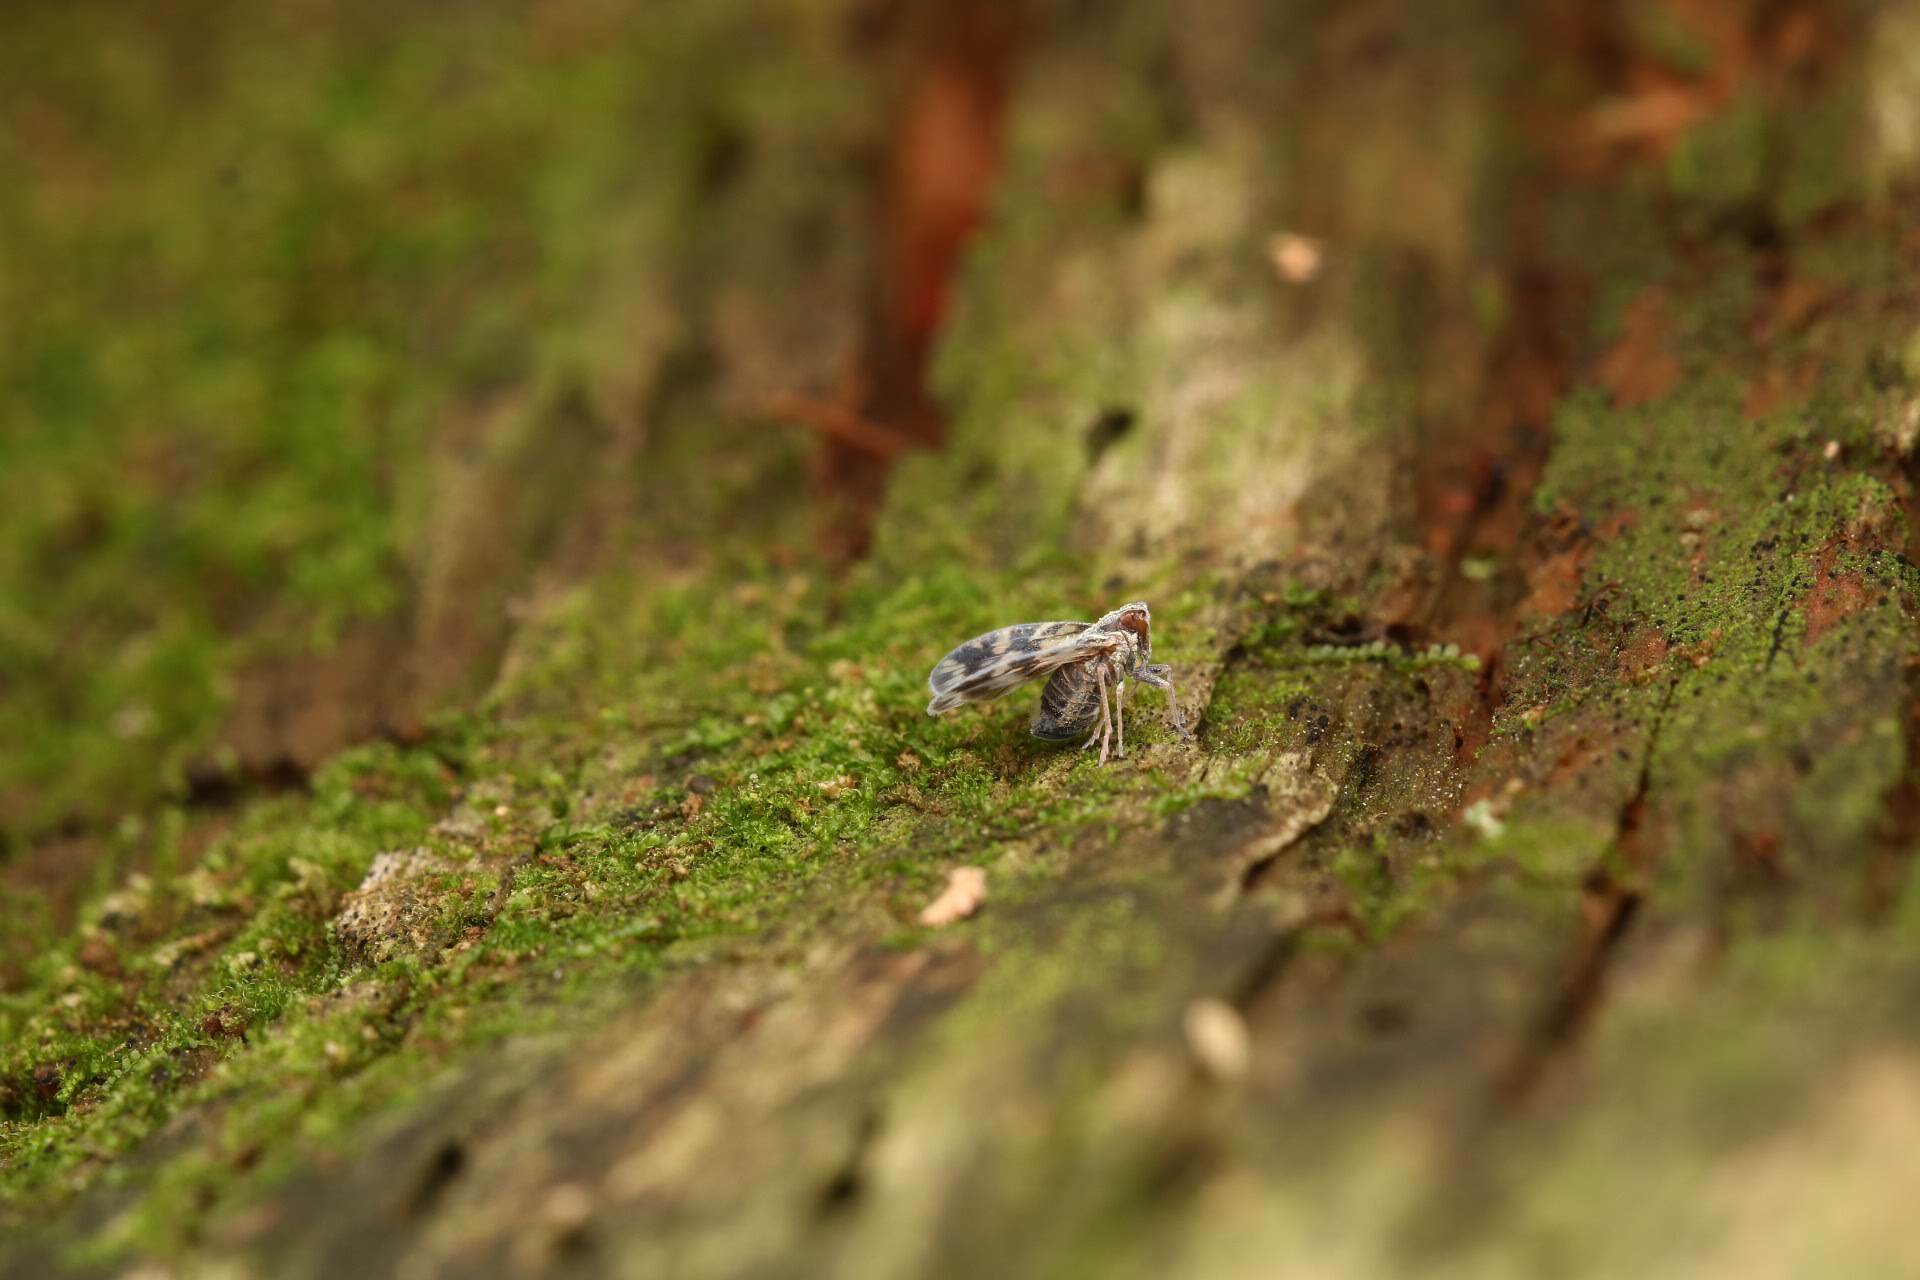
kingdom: Animalia
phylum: Arthropoda
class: Insecta
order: Hemiptera
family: Cixiidae
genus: Bothriocera
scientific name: Bothriocera cognita
